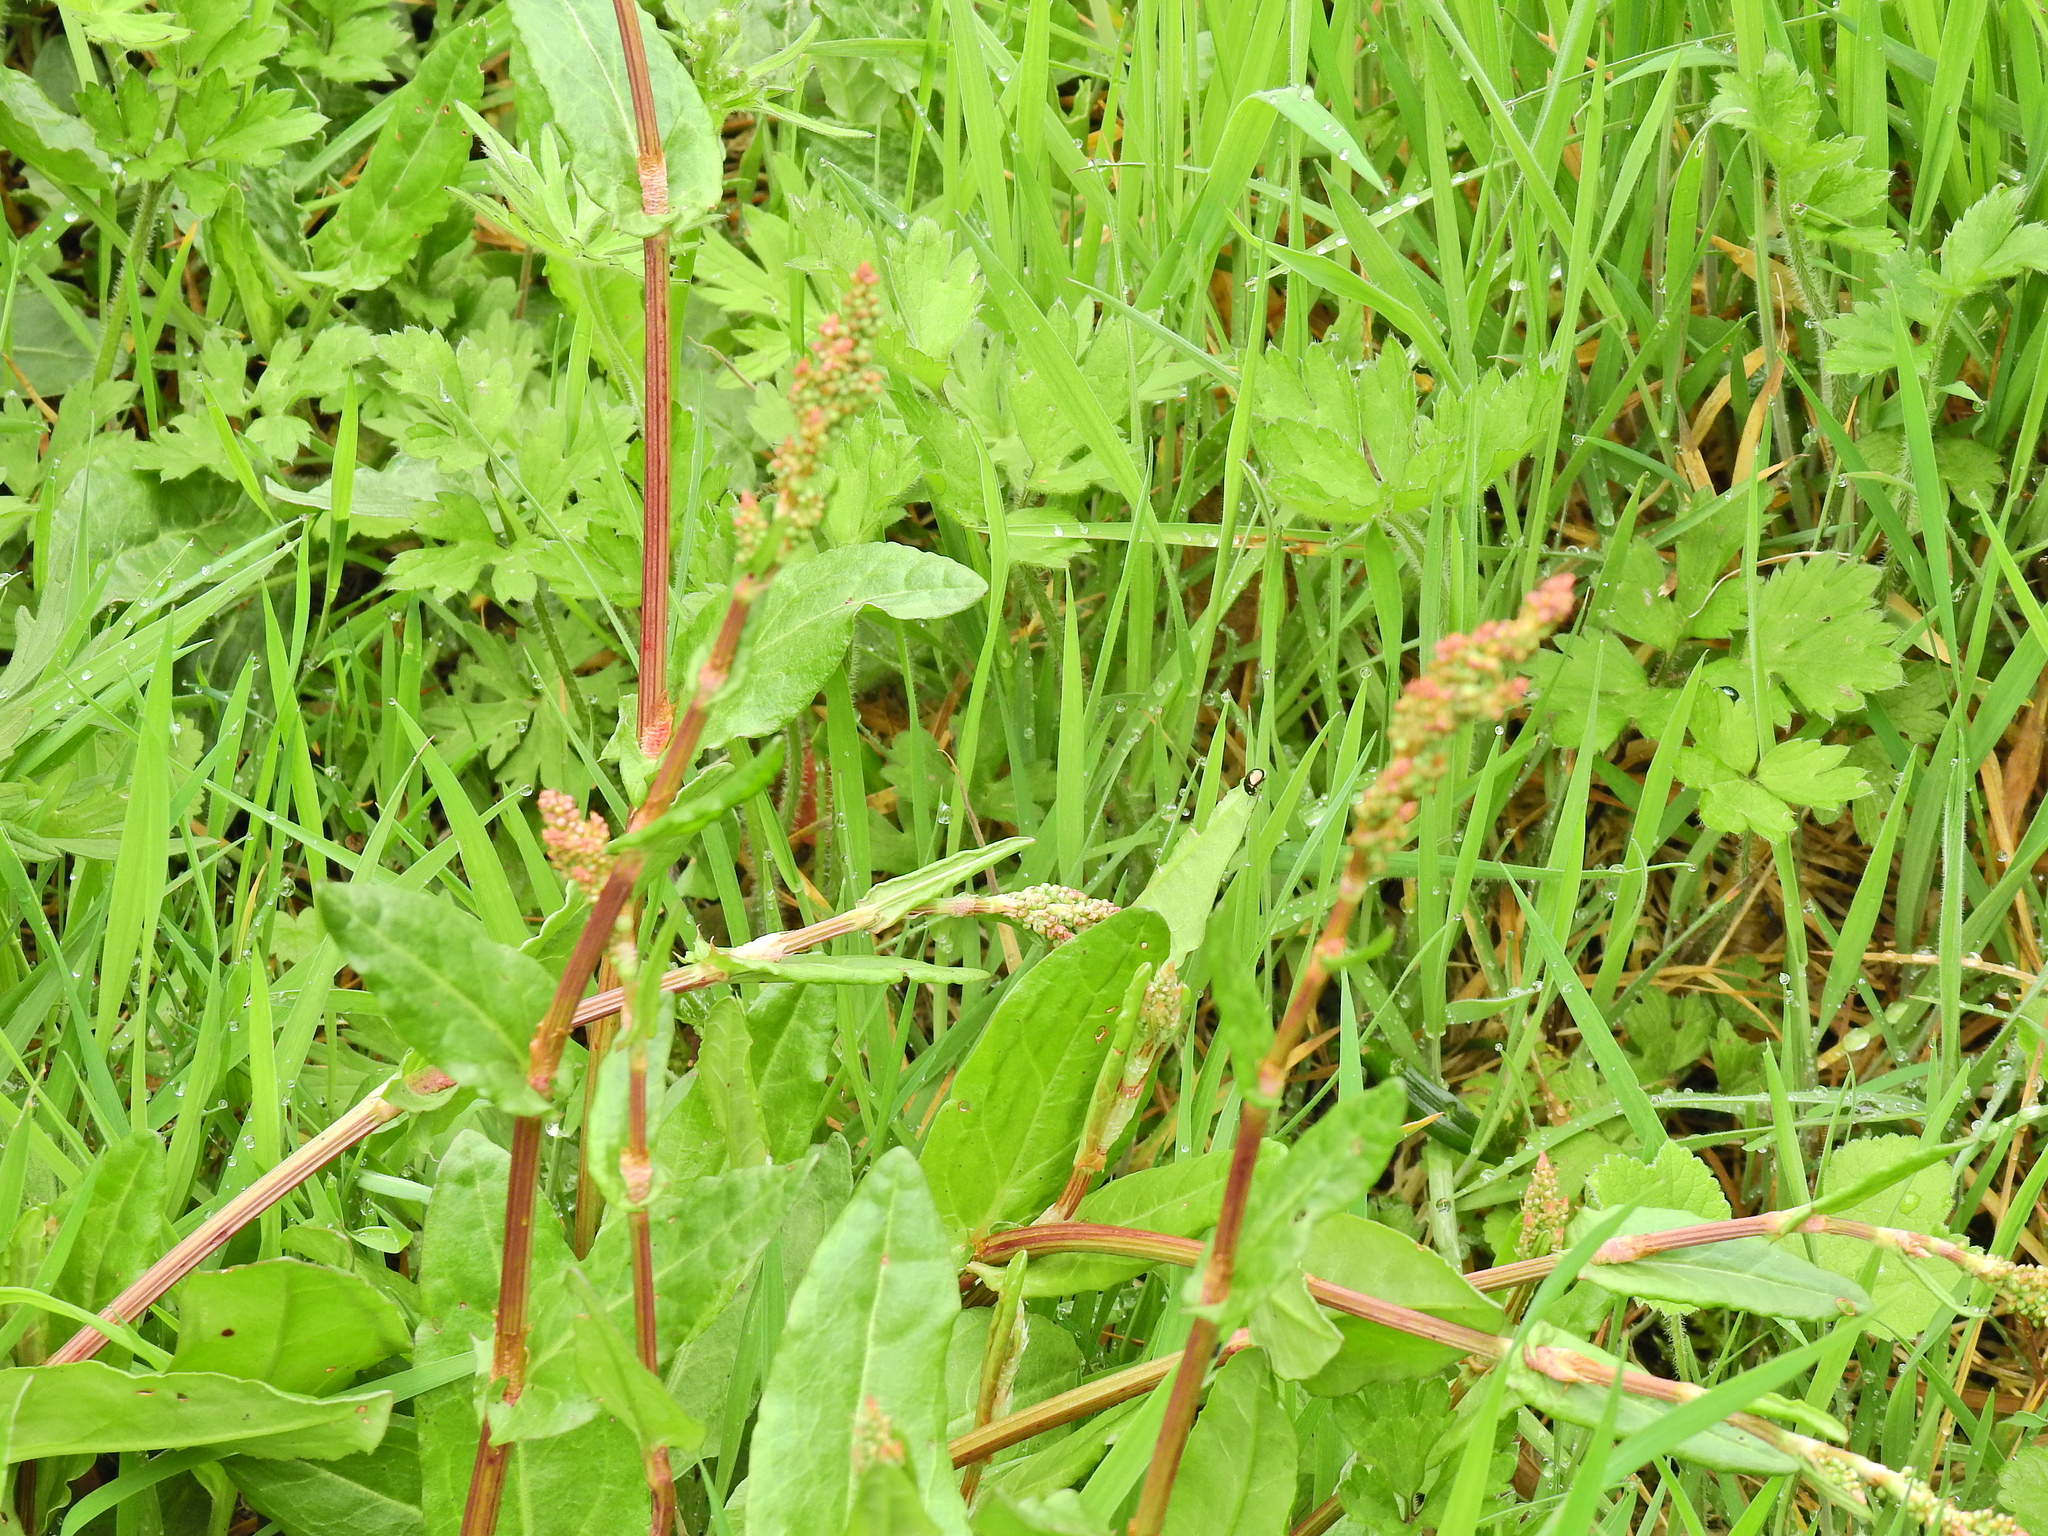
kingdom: Plantae
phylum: Tracheophyta
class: Magnoliopsida
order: Caryophyllales
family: Polygonaceae
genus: Rumex
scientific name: Rumex acetosa
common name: Garden sorrel
